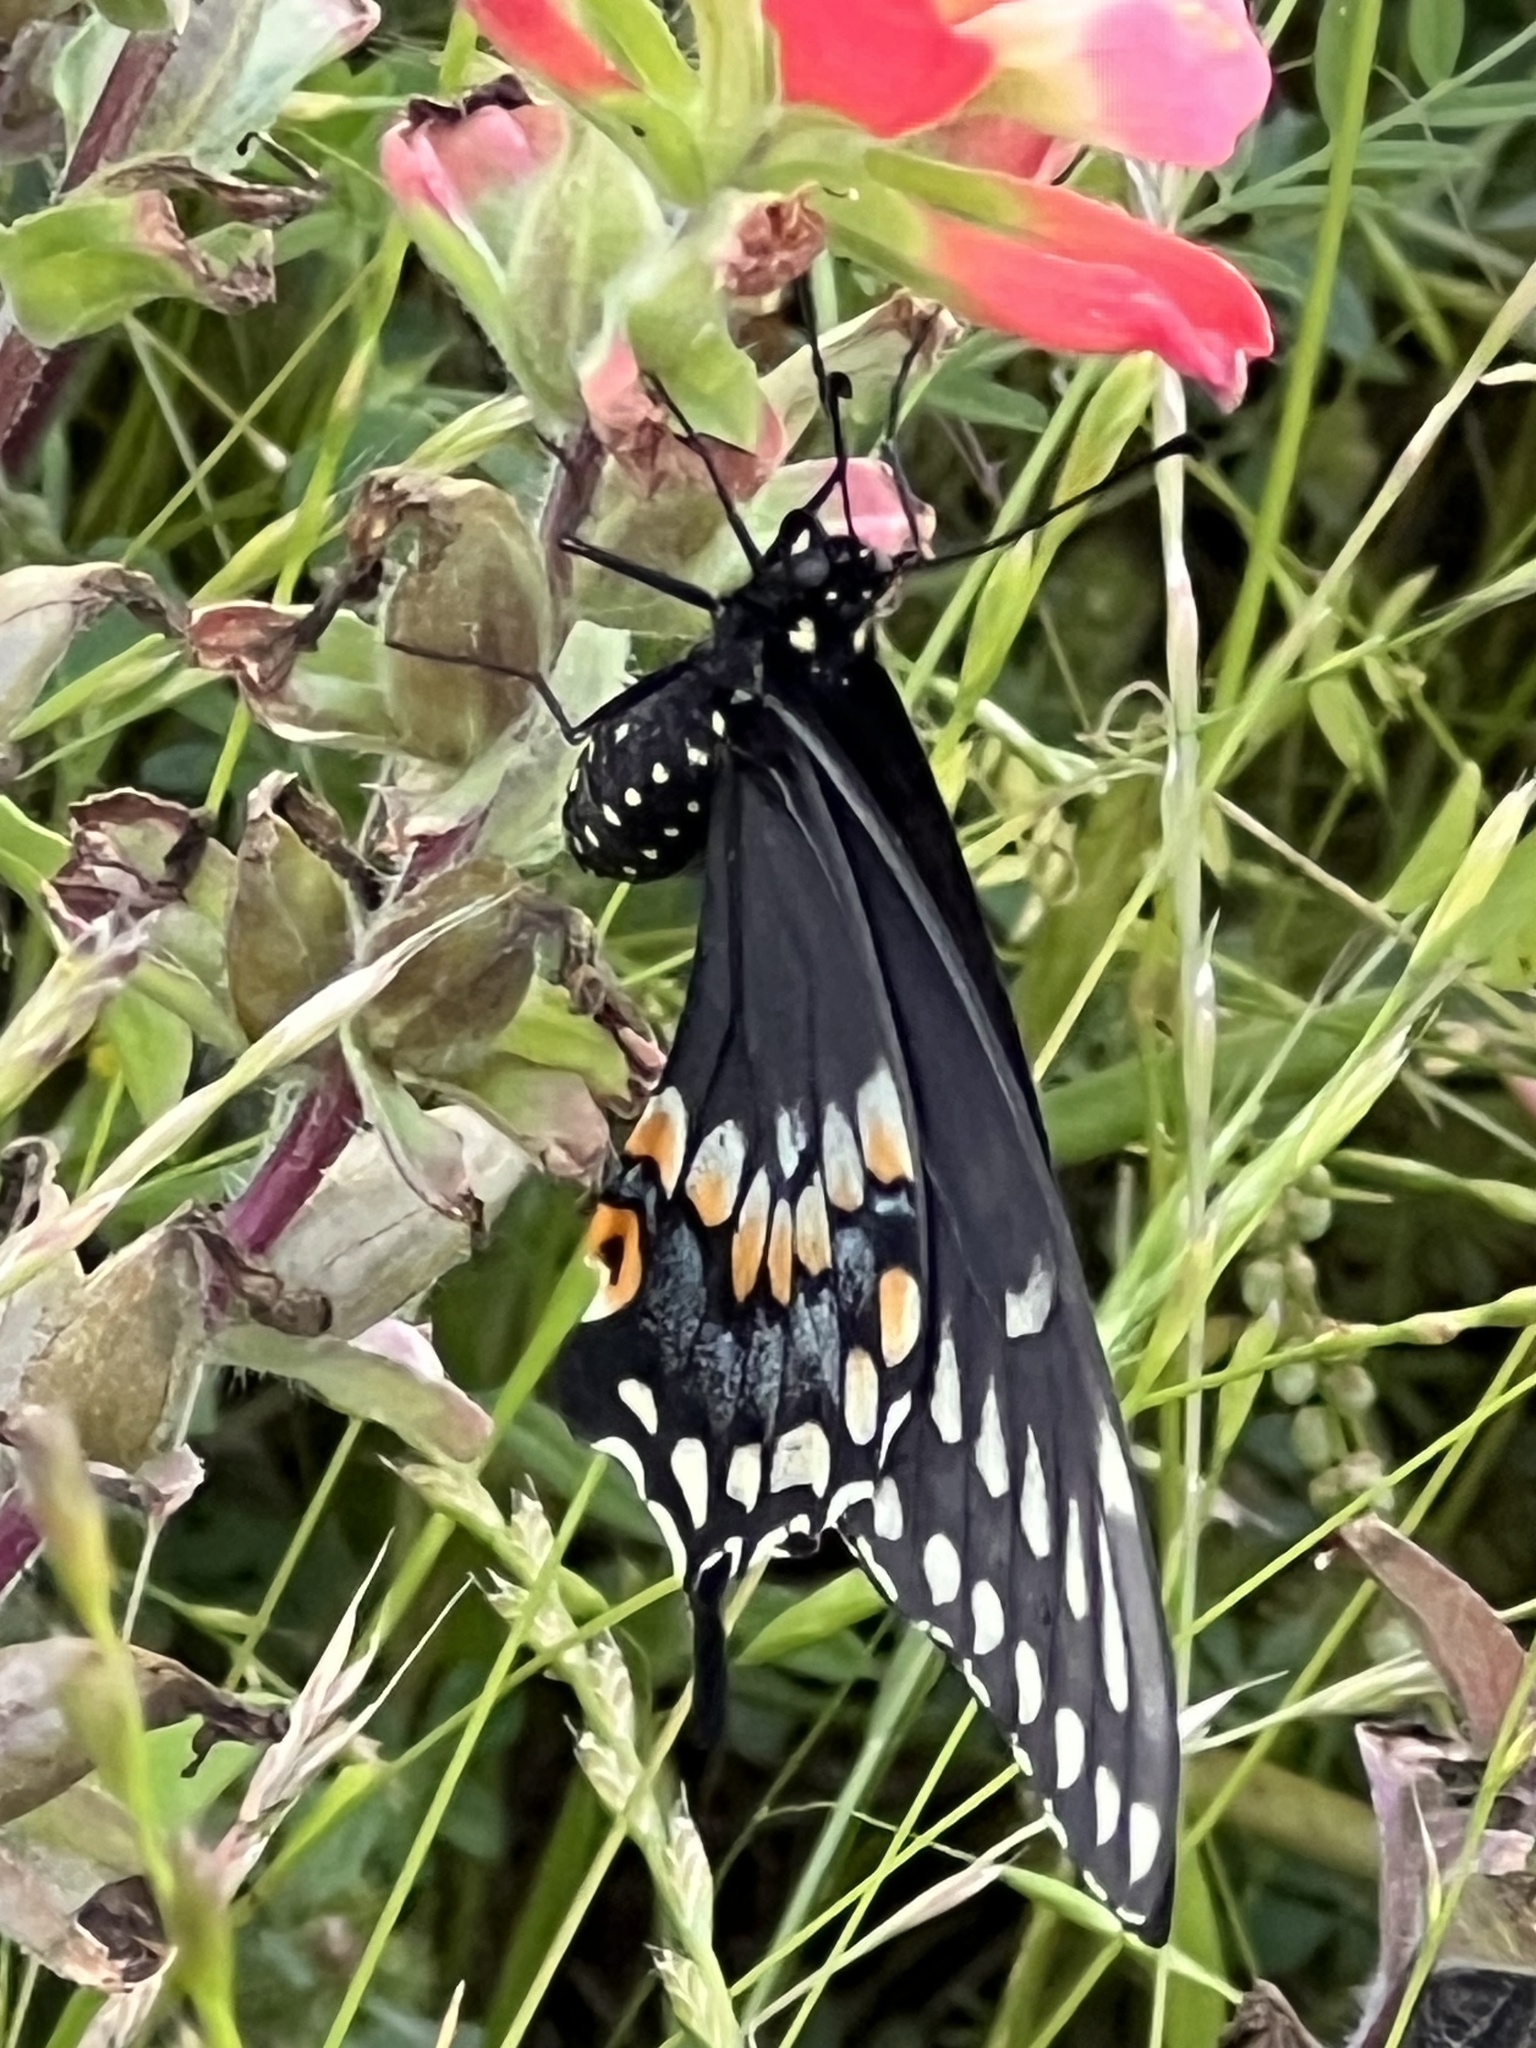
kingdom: Animalia
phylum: Arthropoda
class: Insecta
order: Lepidoptera
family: Papilionidae
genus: Papilio
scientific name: Papilio polyxenes
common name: Black swallowtail
